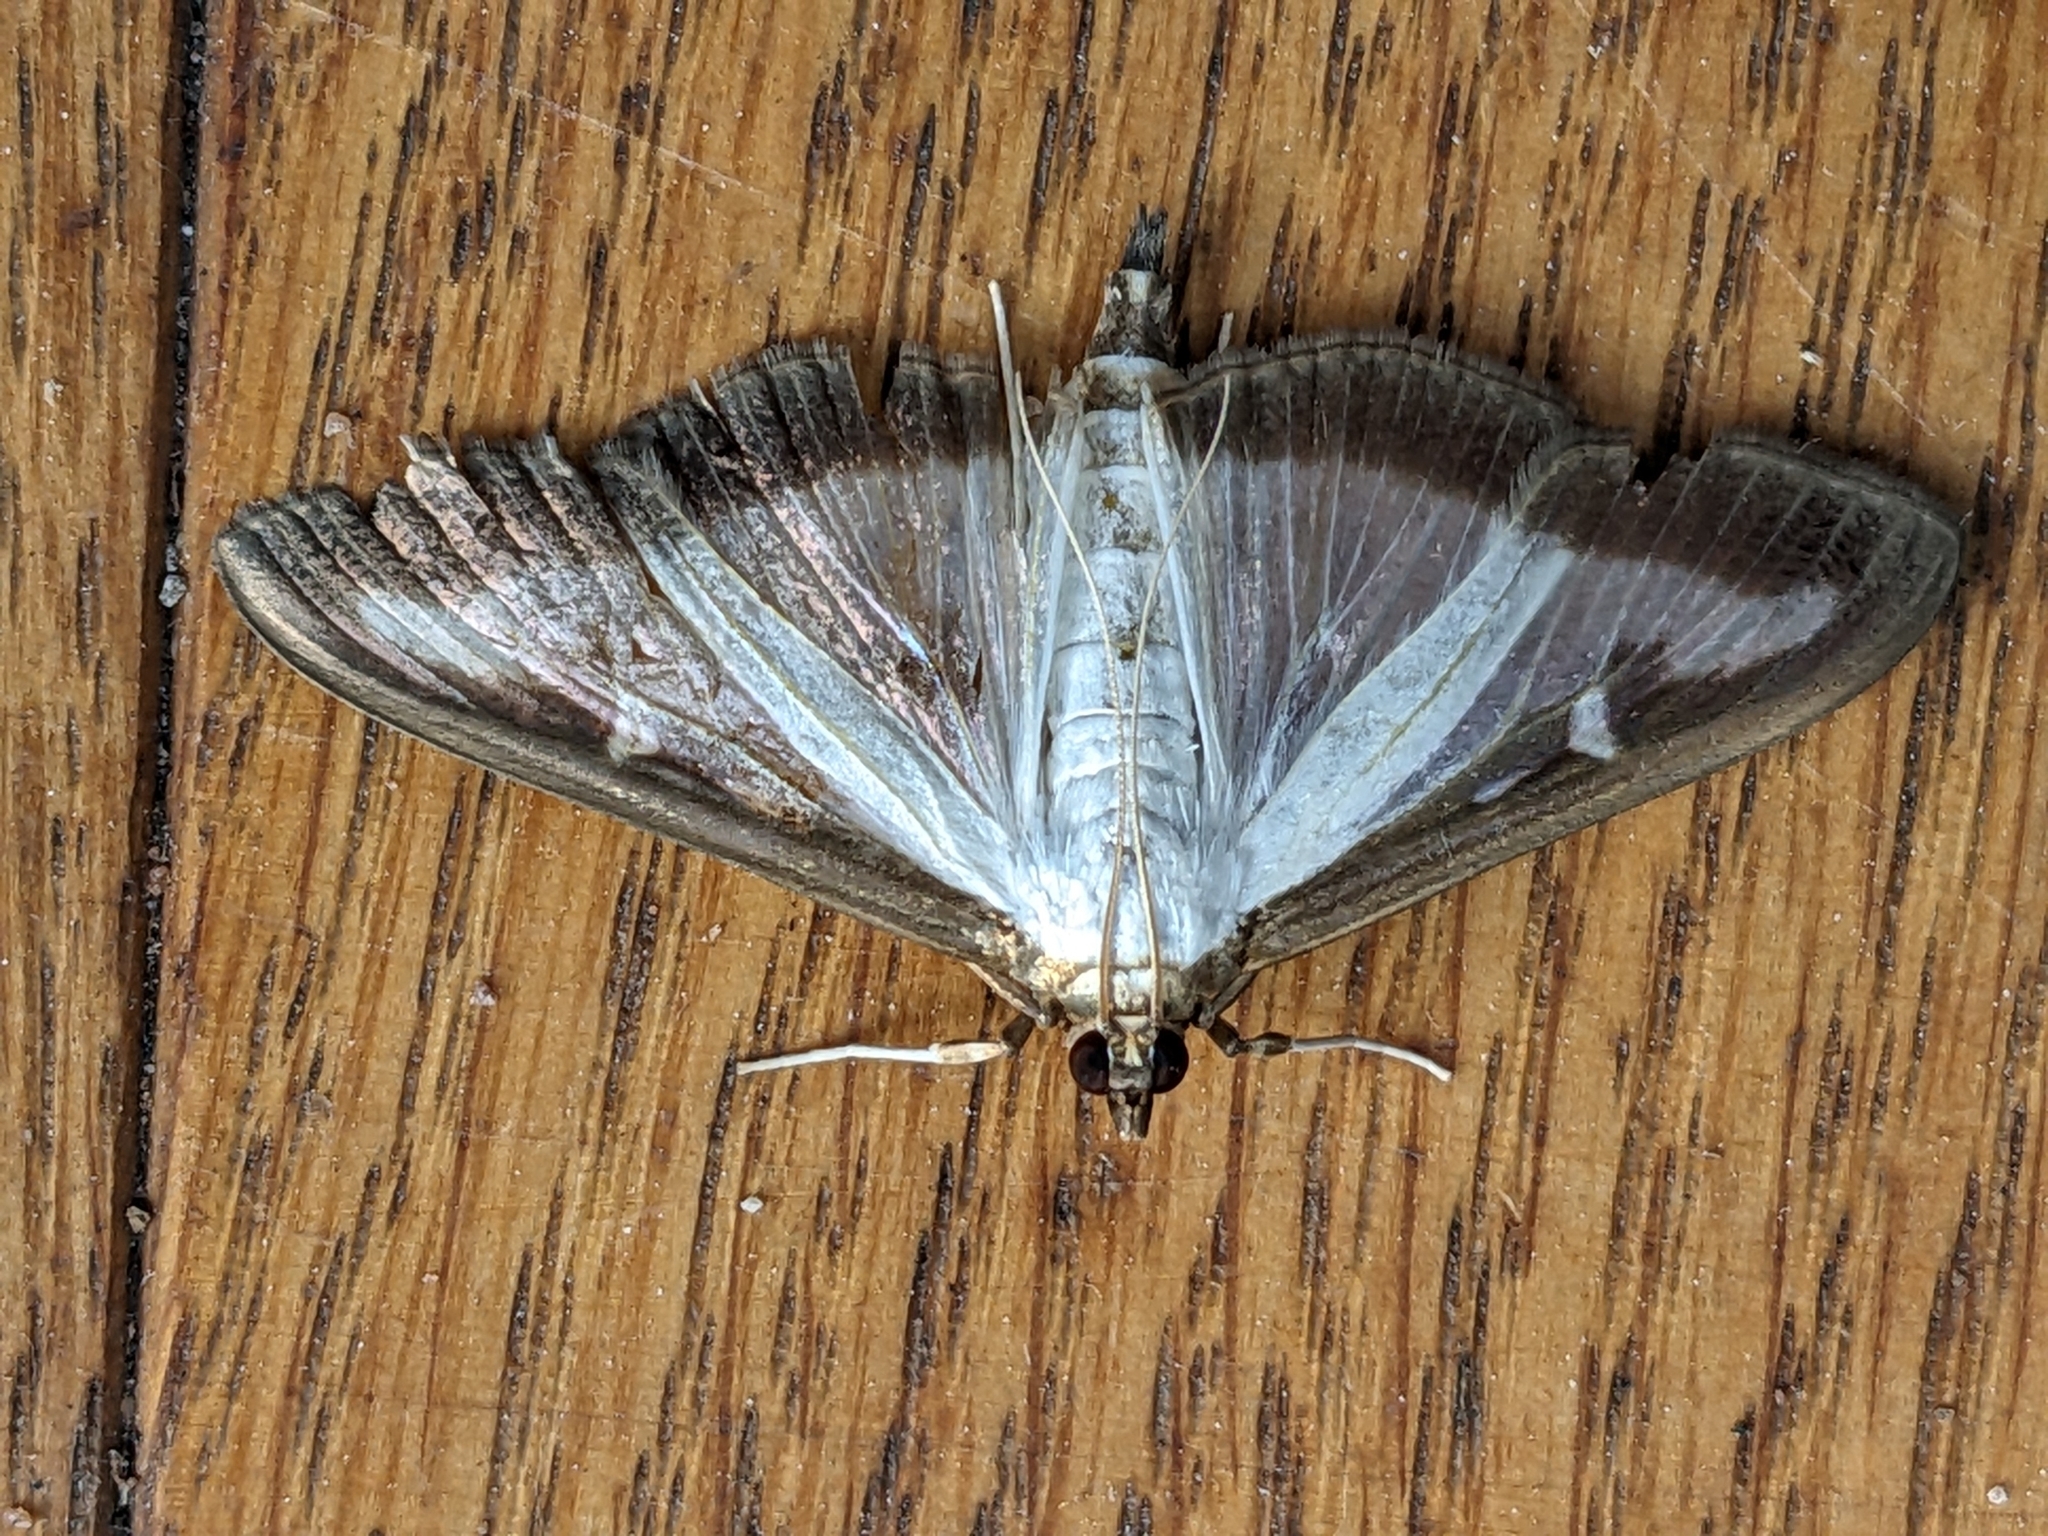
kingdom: Animalia
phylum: Arthropoda
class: Insecta
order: Lepidoptera
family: Crambidae
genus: Cydalima
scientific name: Cydalima perspectalis
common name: Box tree moth
